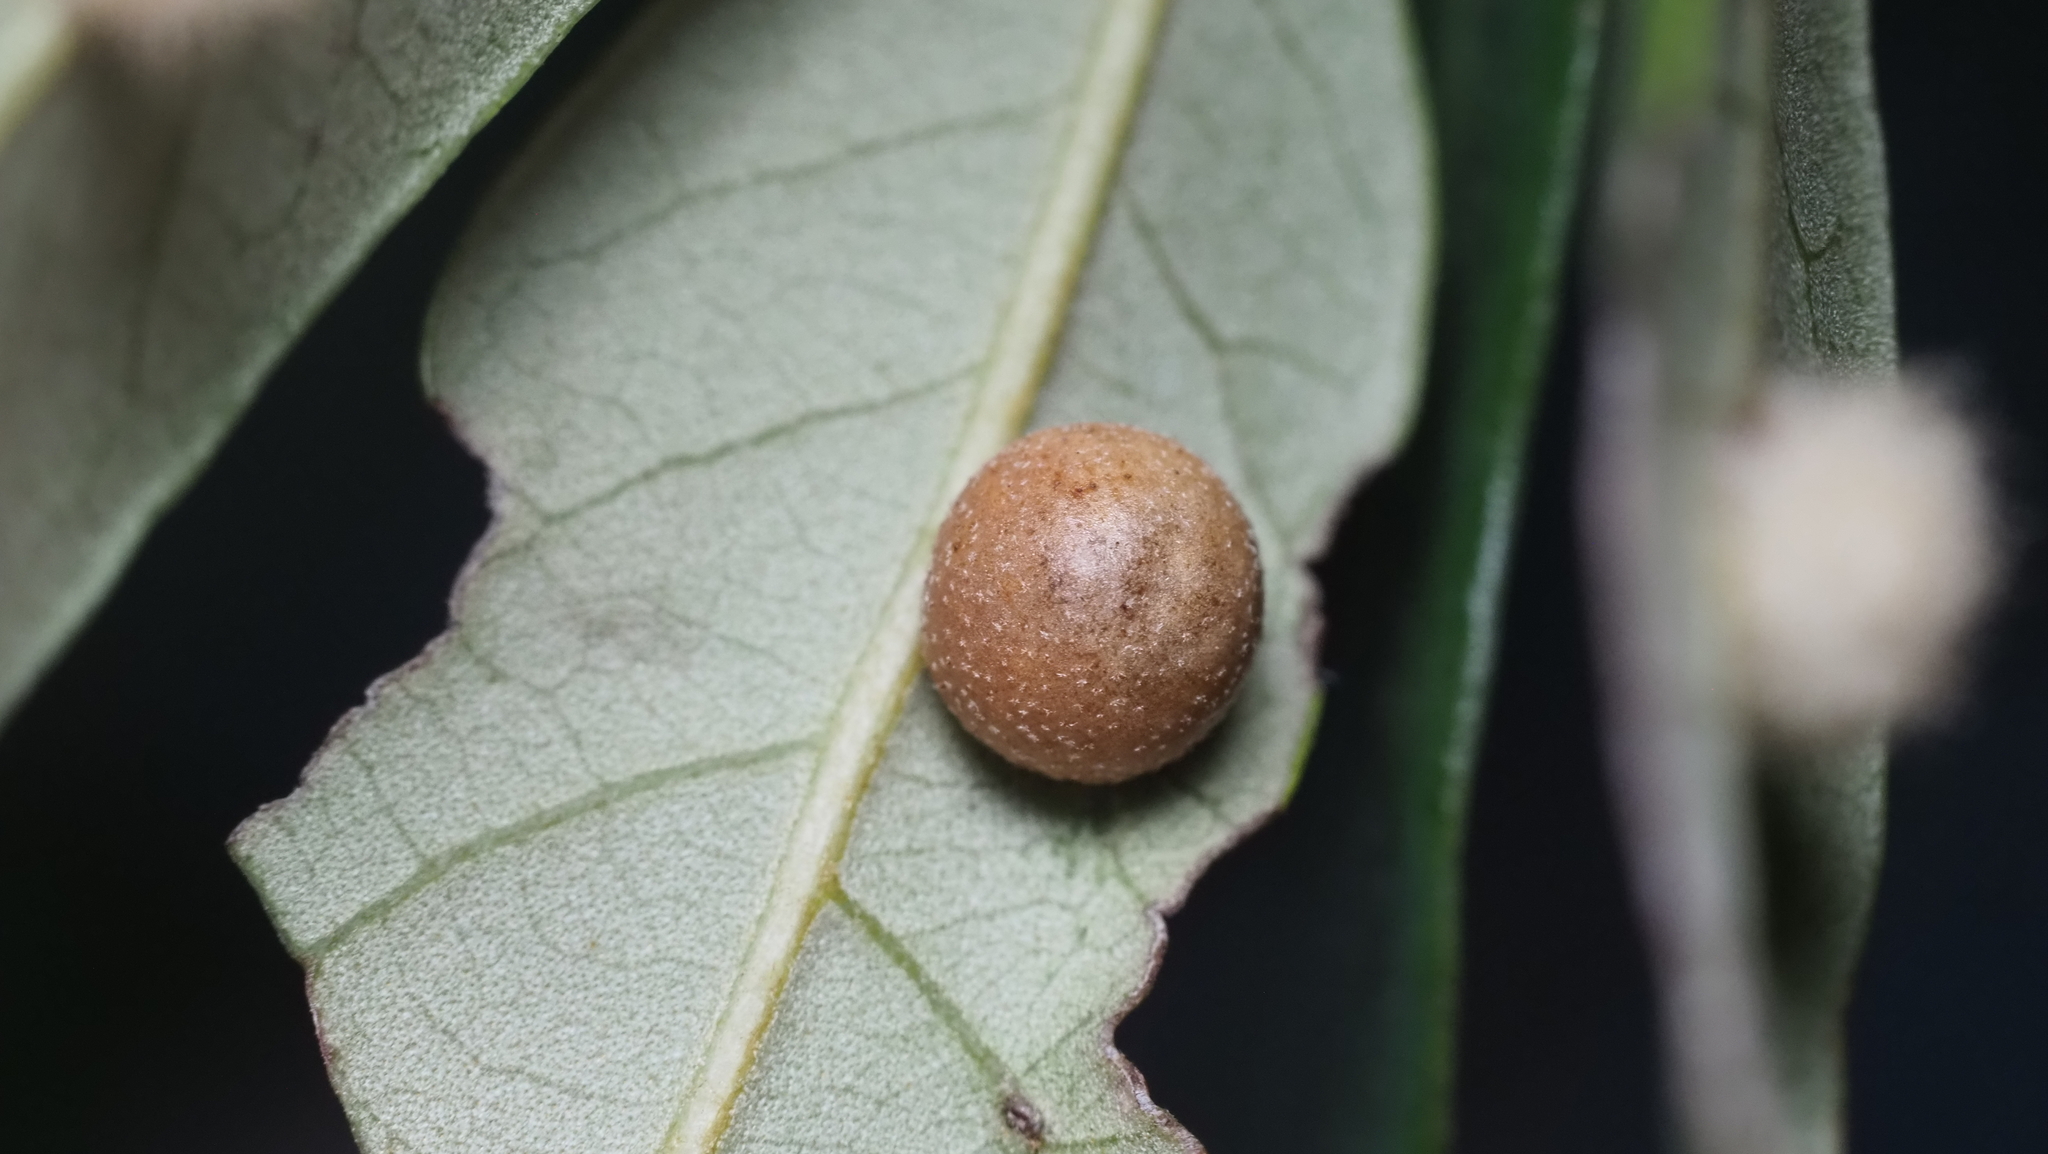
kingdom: Animalia
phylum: Arthropoda
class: Insecta
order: Hymenoptera
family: Cynipidae
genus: Belonocnema
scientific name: Belonocnema kinseyi
